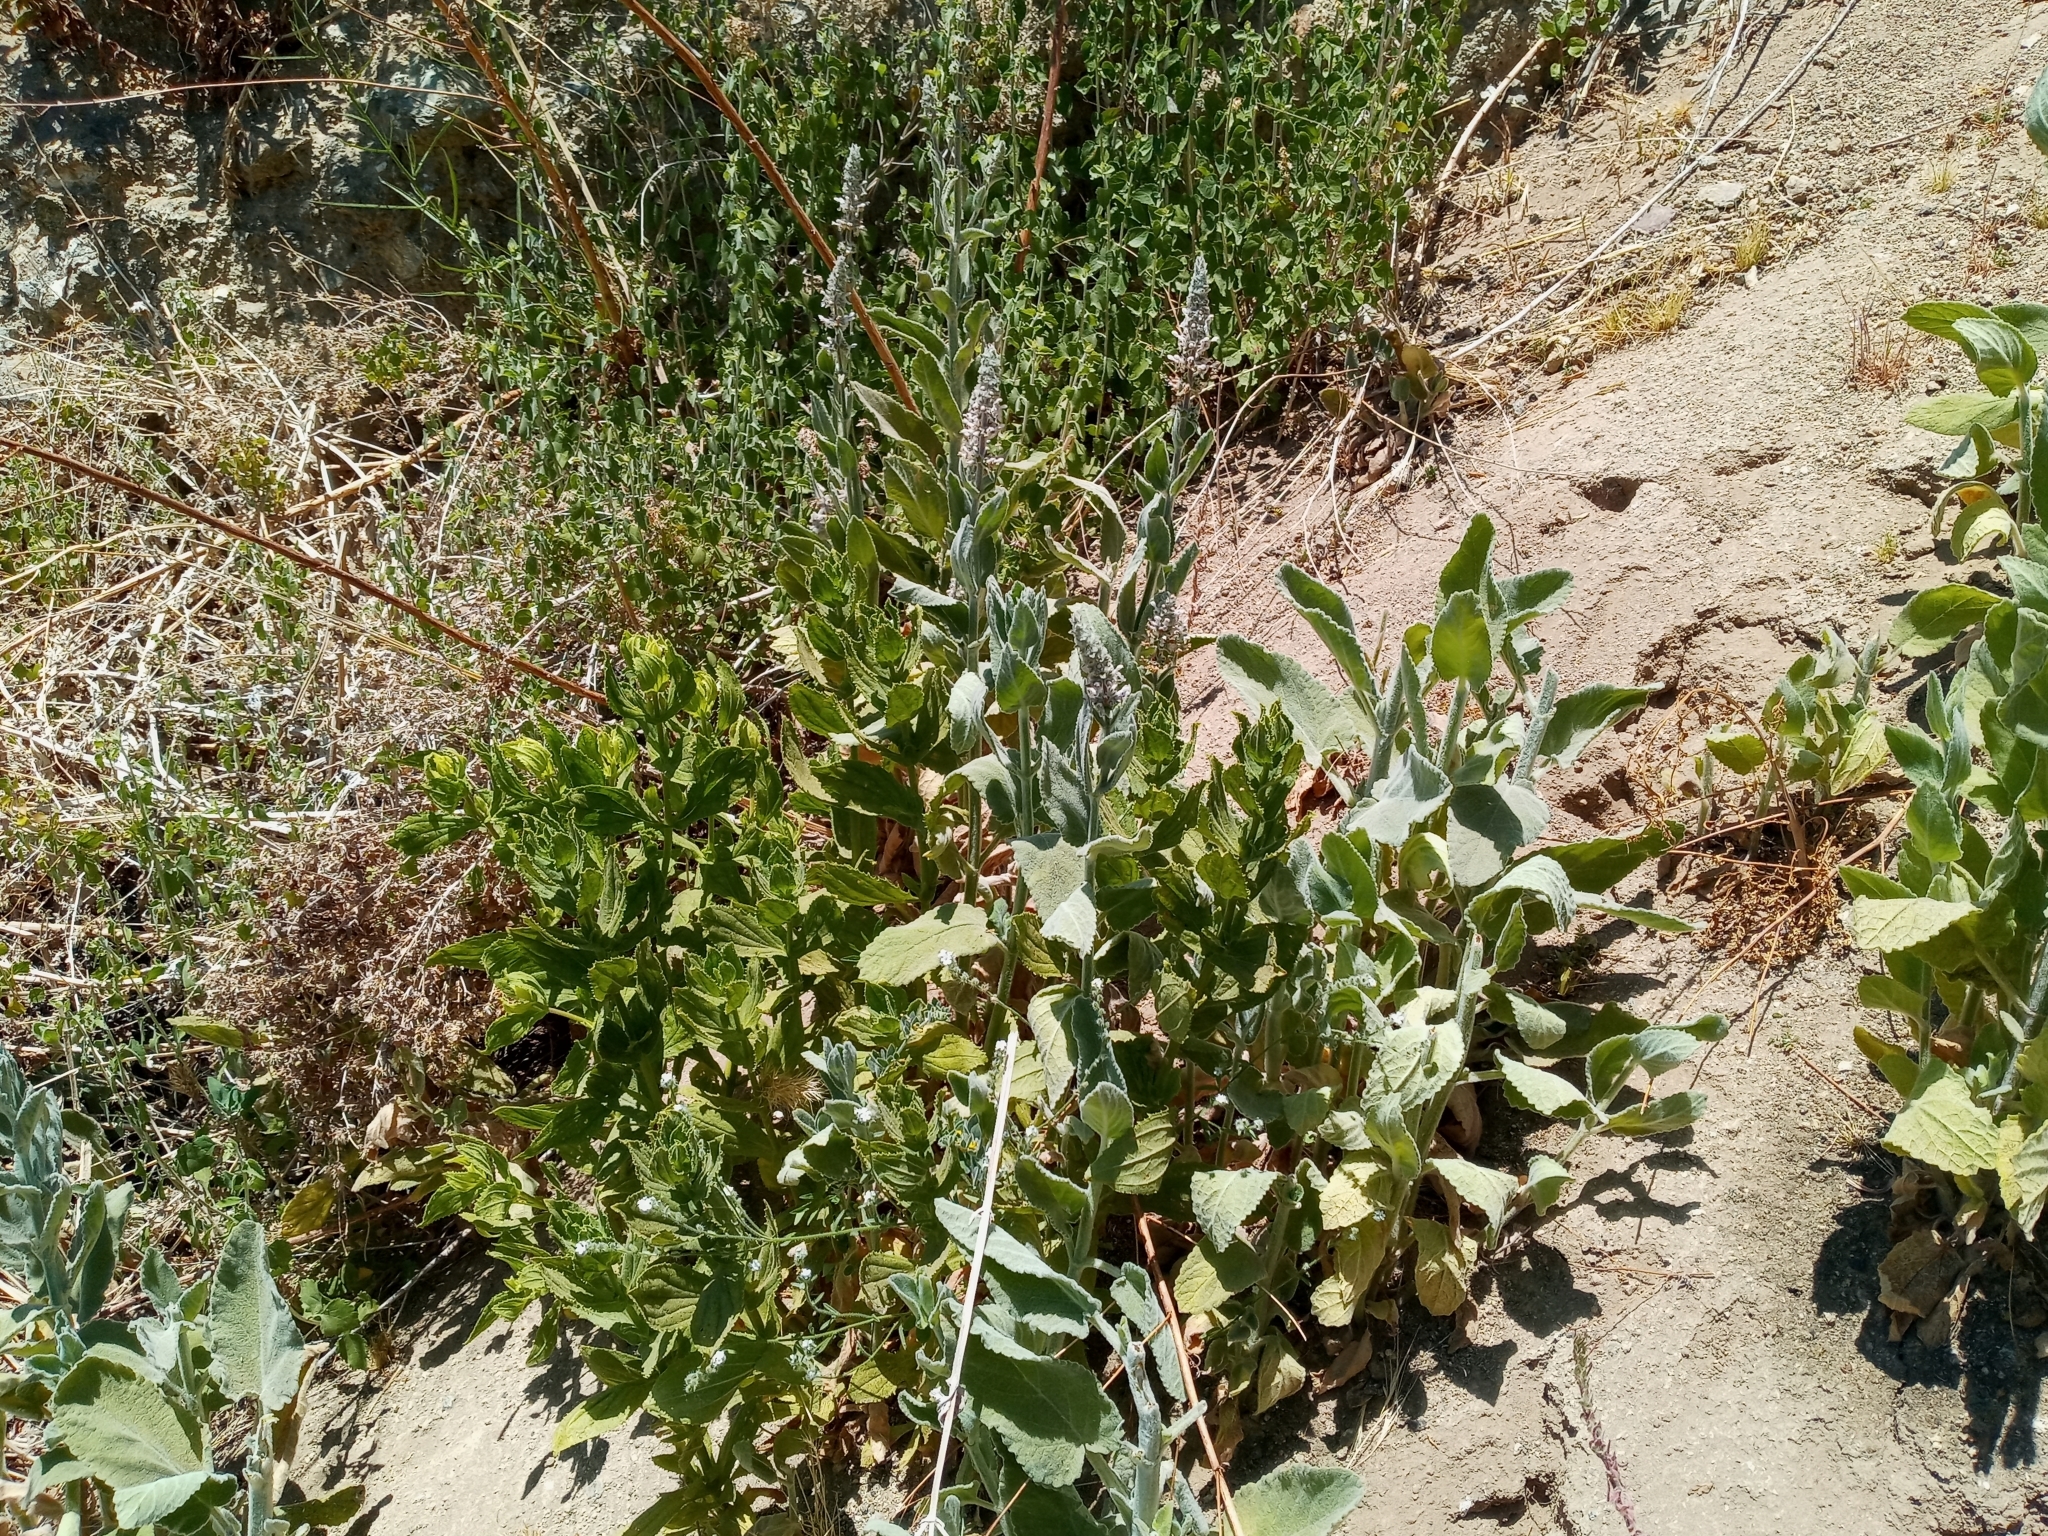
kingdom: Plantae
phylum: Tracheophyta
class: Magnoliopsida
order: Lamiales
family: Lamiaceae
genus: Stachys
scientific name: Stachys albens
